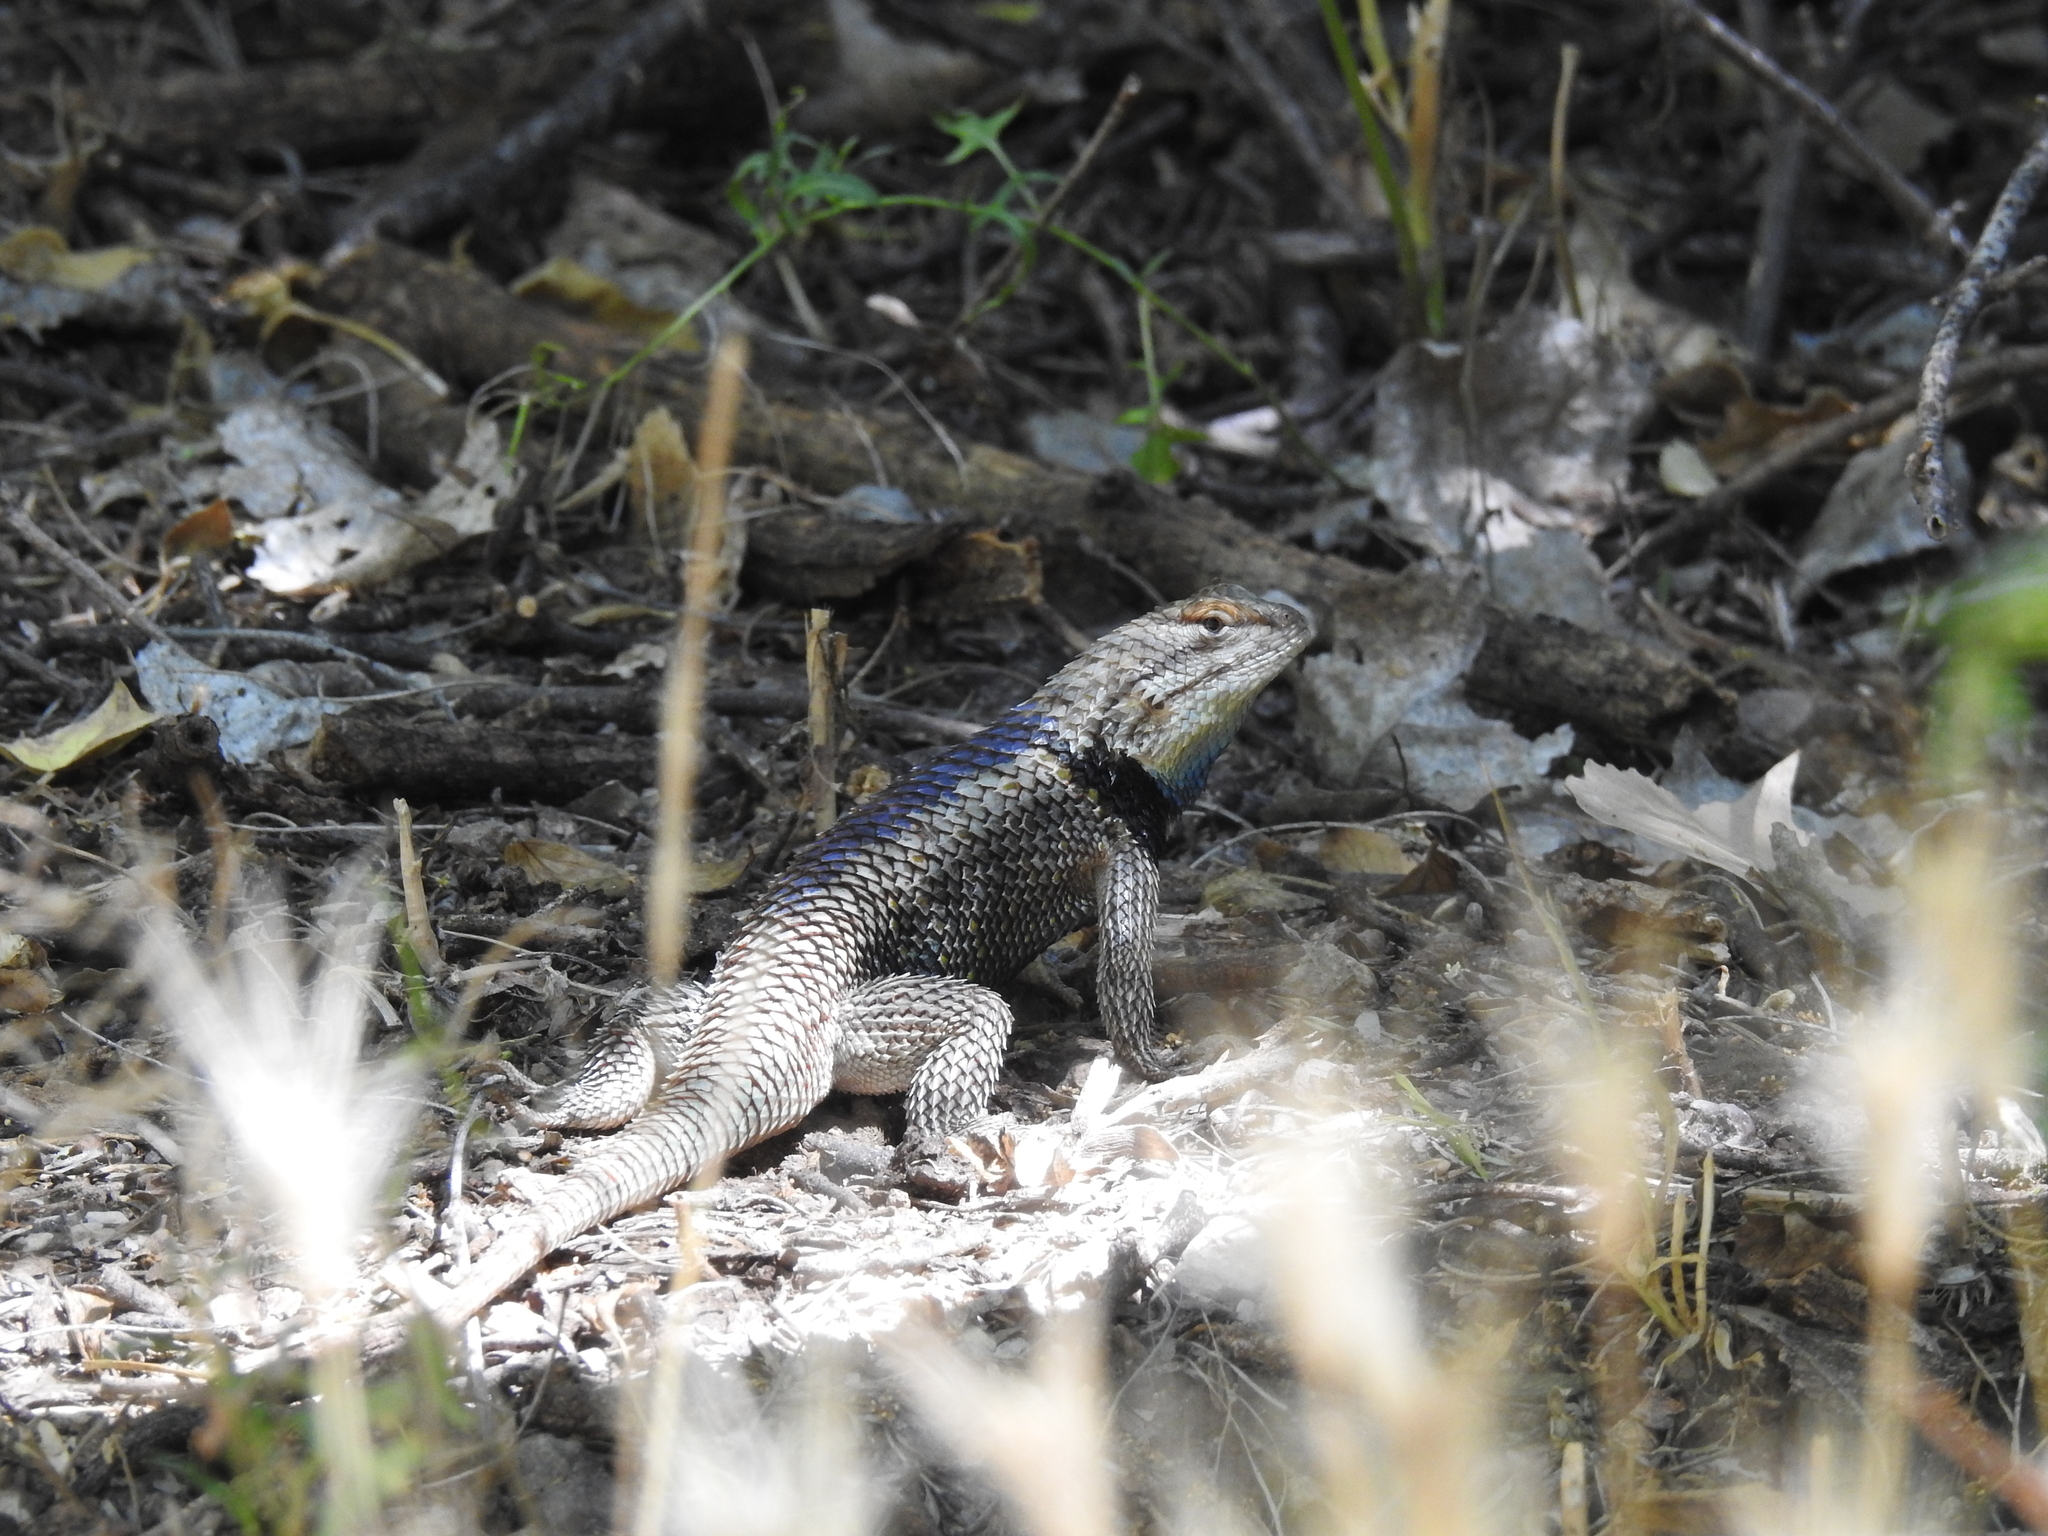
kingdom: Animalia
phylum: Chordata
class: Squamata
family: Phrynosomatidae
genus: Sceloporus
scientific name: Sceloporus magister
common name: Desert spiny lizard
